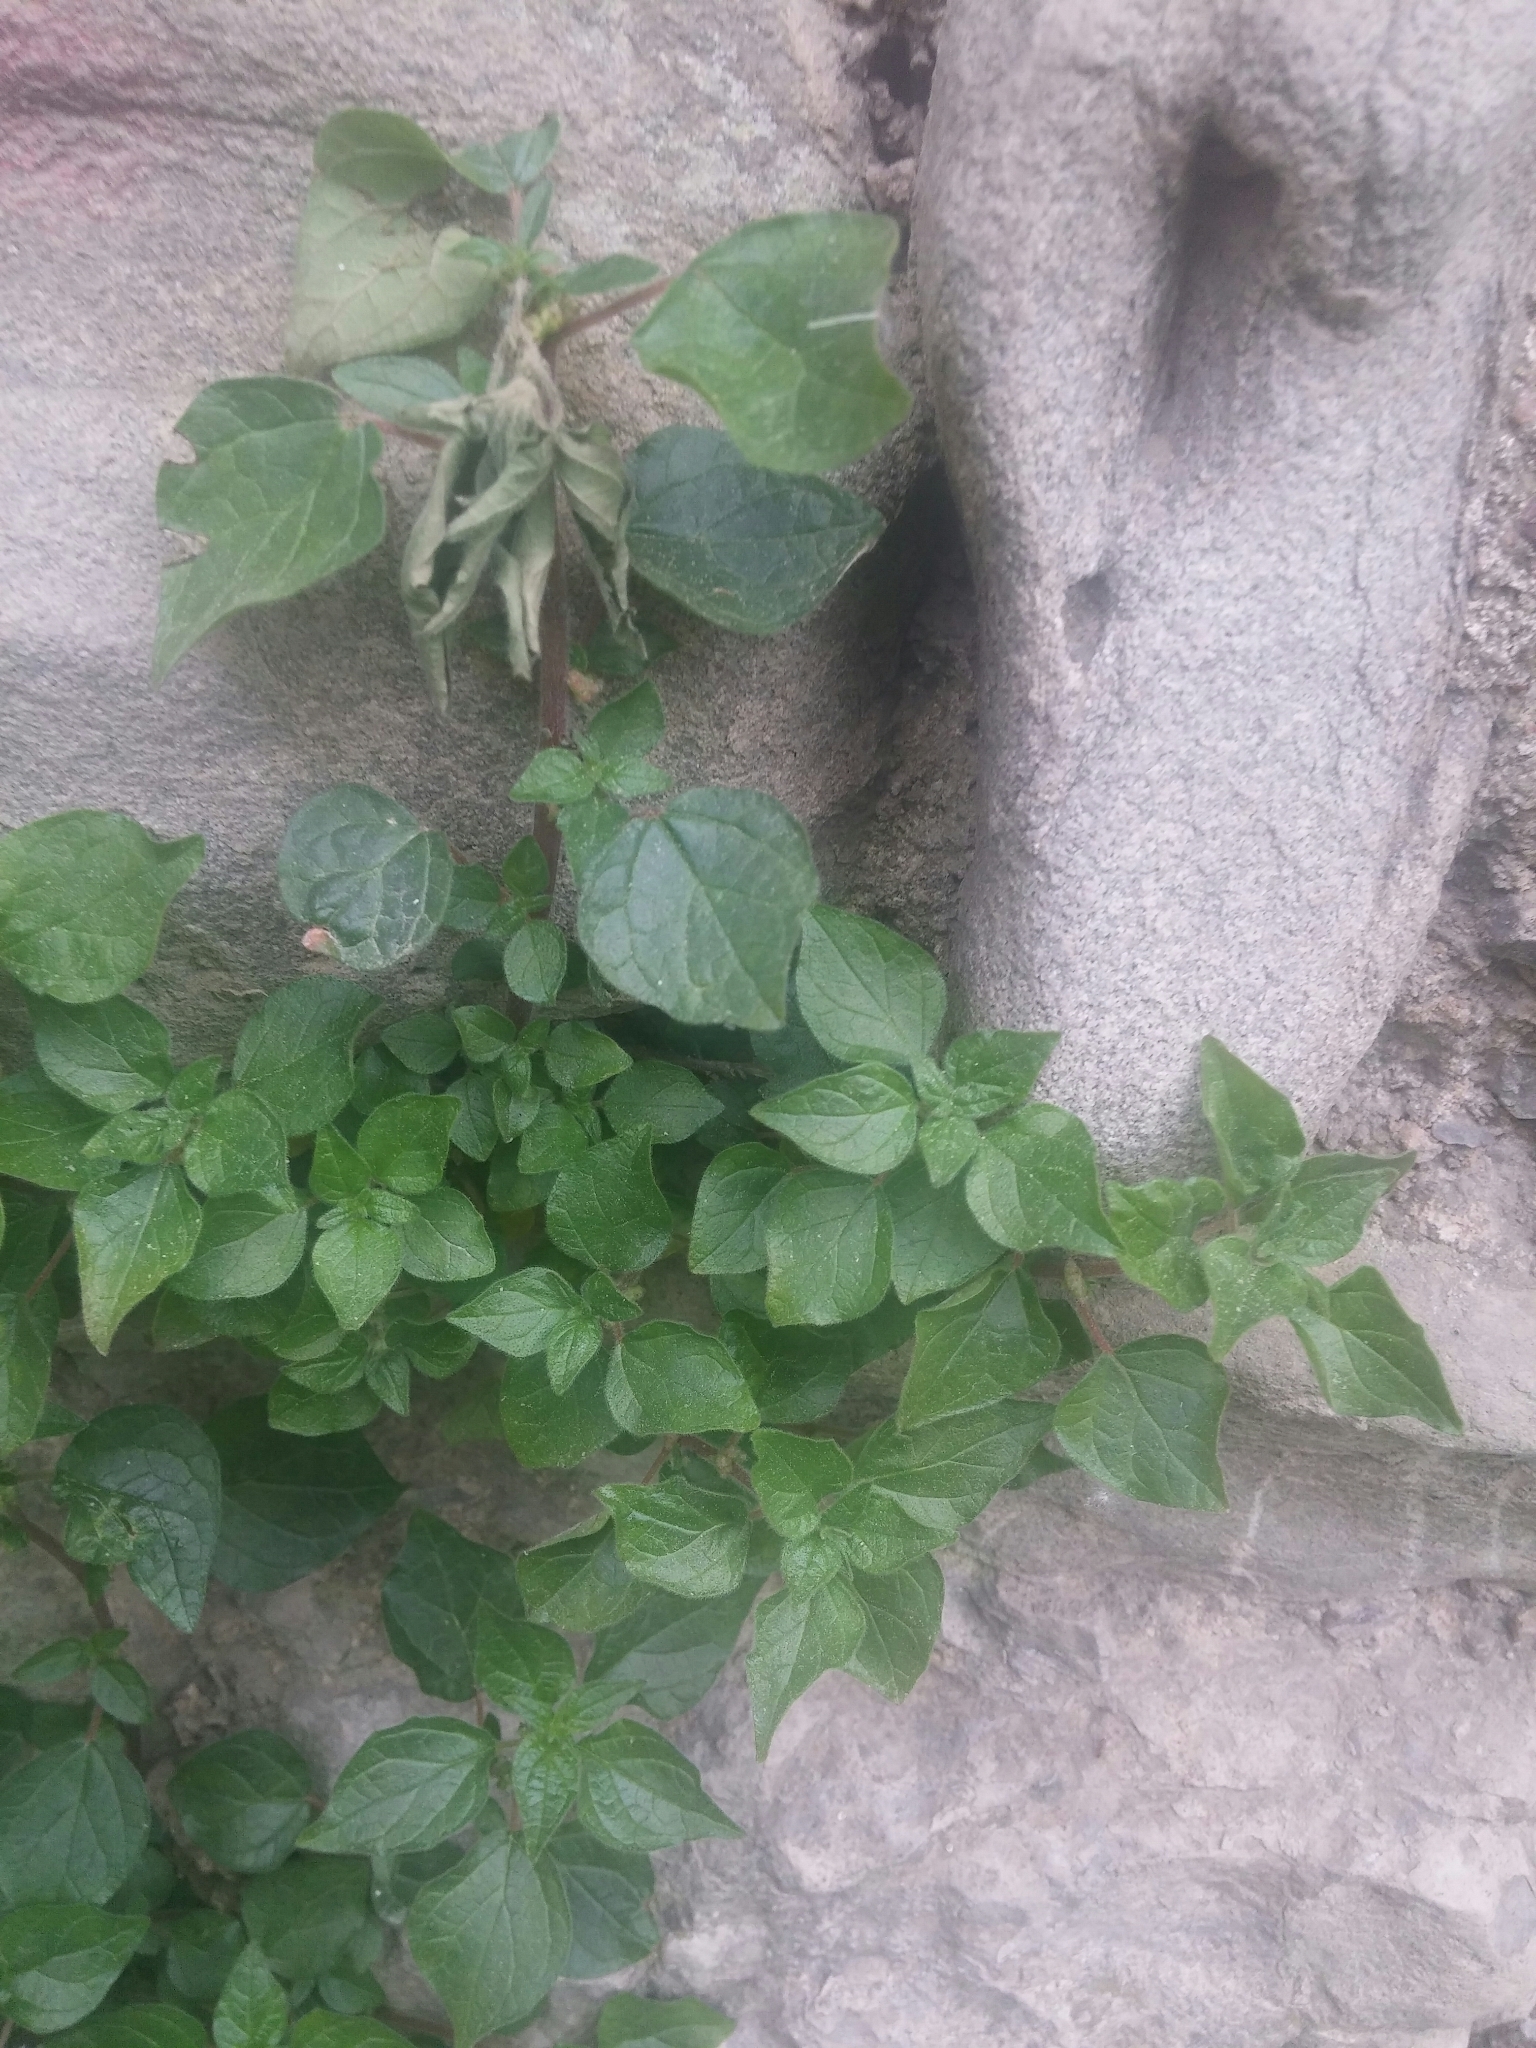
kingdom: Plantae
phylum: Tracheophyta
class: Magnoliopsida
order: Rosales
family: Urticaceae
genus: Parietaria
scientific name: Parietaria officinalis
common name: Eastern pellitory-of-the-wall
